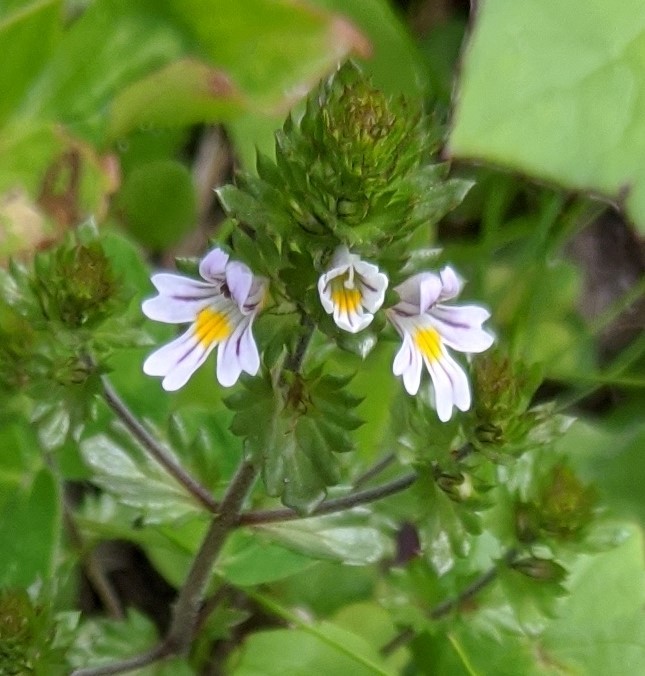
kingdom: Plantae
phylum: Tracheophyta
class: Magnoliopsida
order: Lamiales
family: Orobanchaceae
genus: Euphrasia
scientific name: Euphrasia nemorosa
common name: Common eyebright
